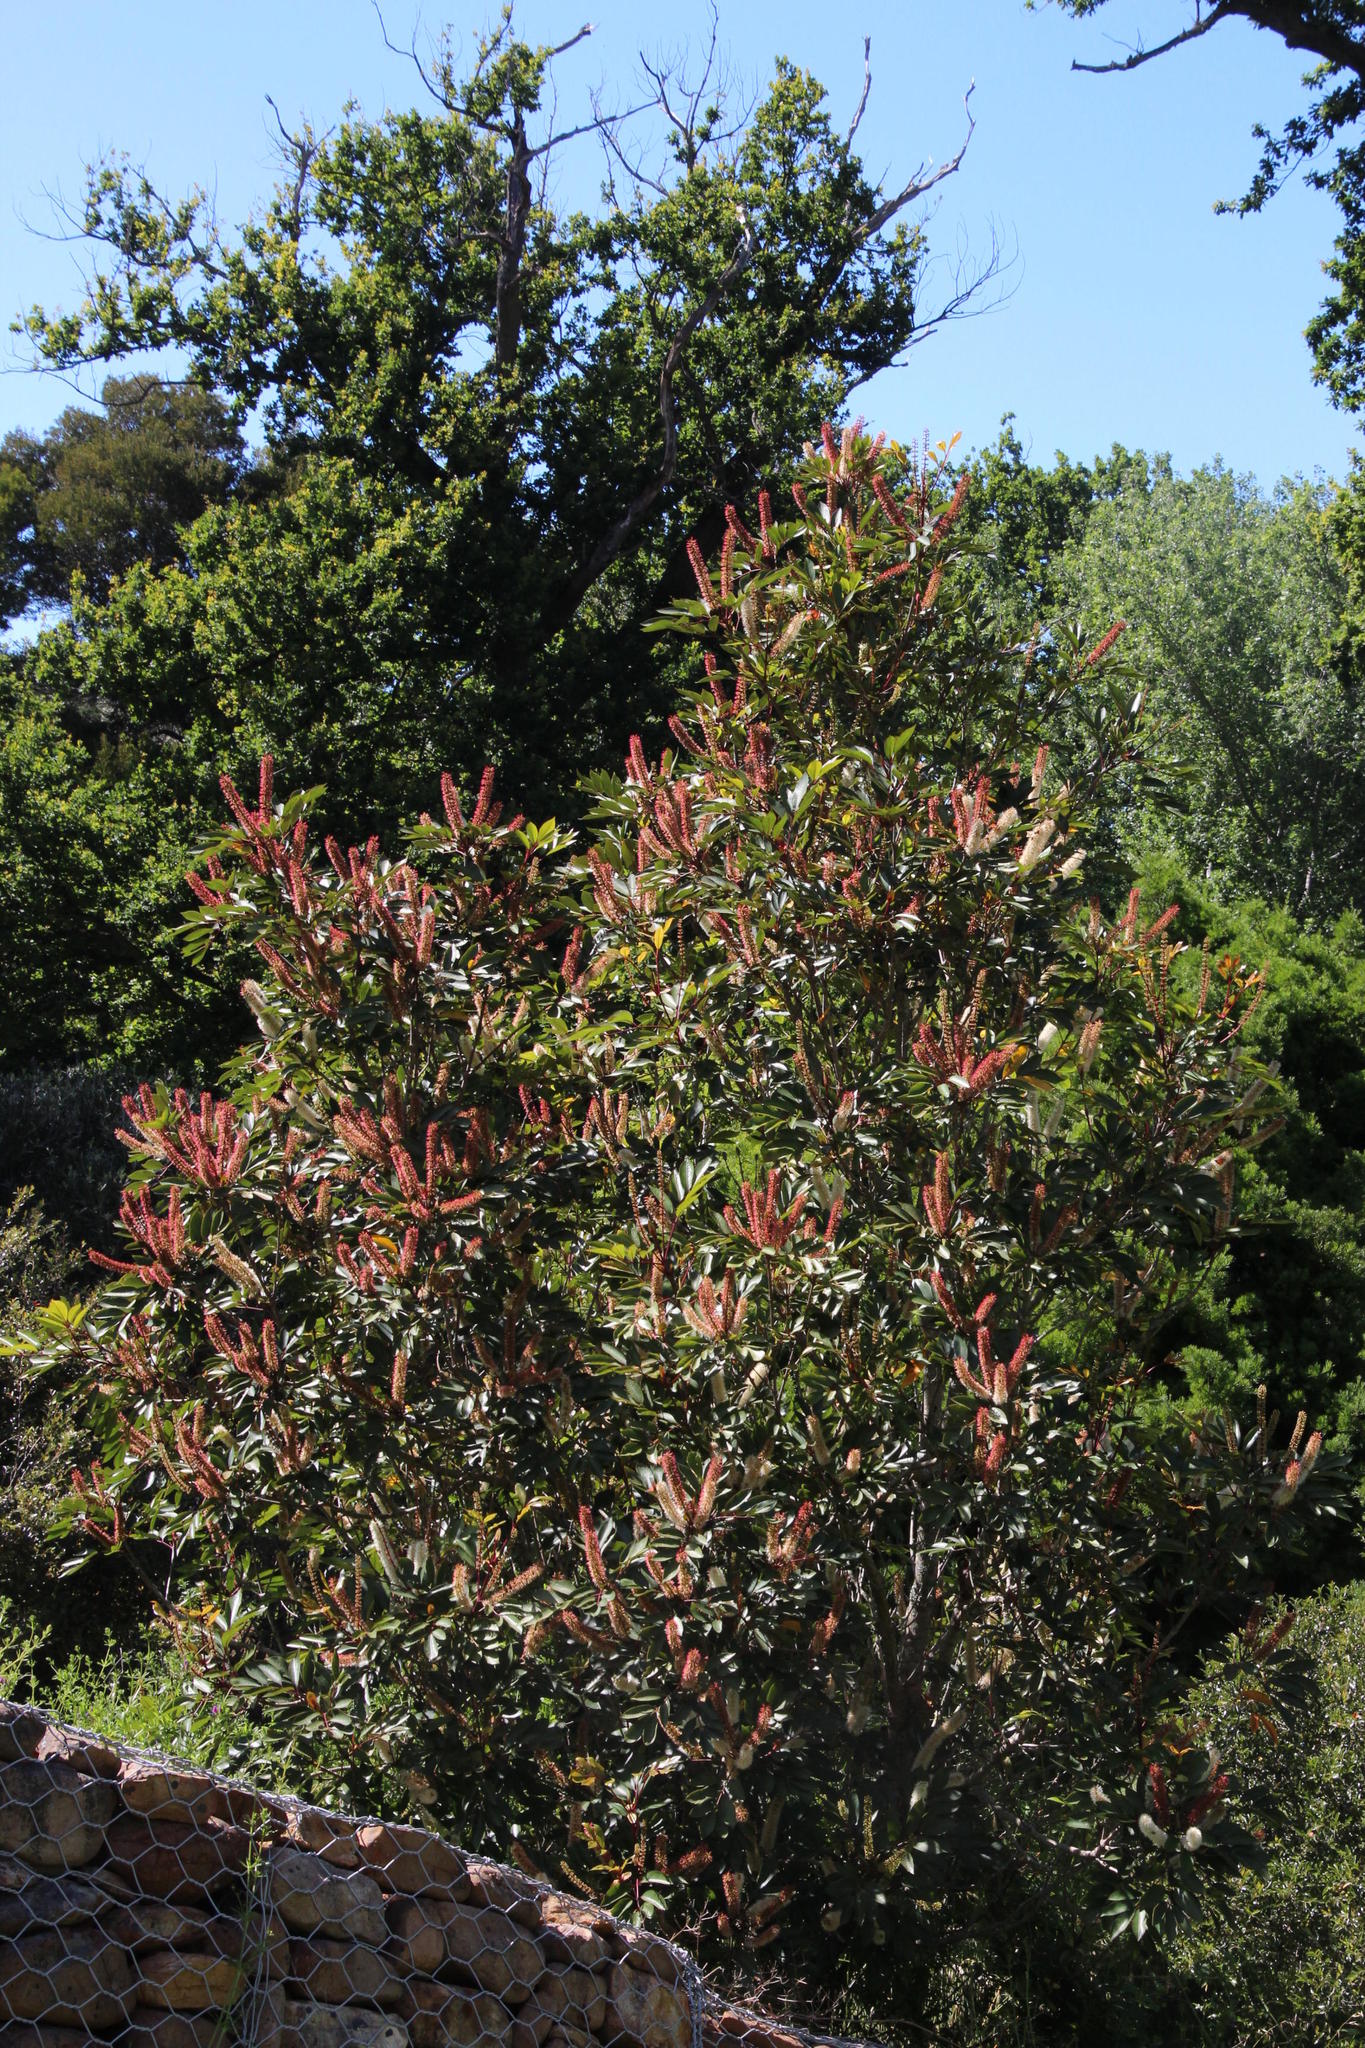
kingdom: Plantae
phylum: Tracheophyta
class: Magnoliopsida
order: Oxalidales
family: Cunoniaceae
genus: Cunonia
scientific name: Cunonia capensis
